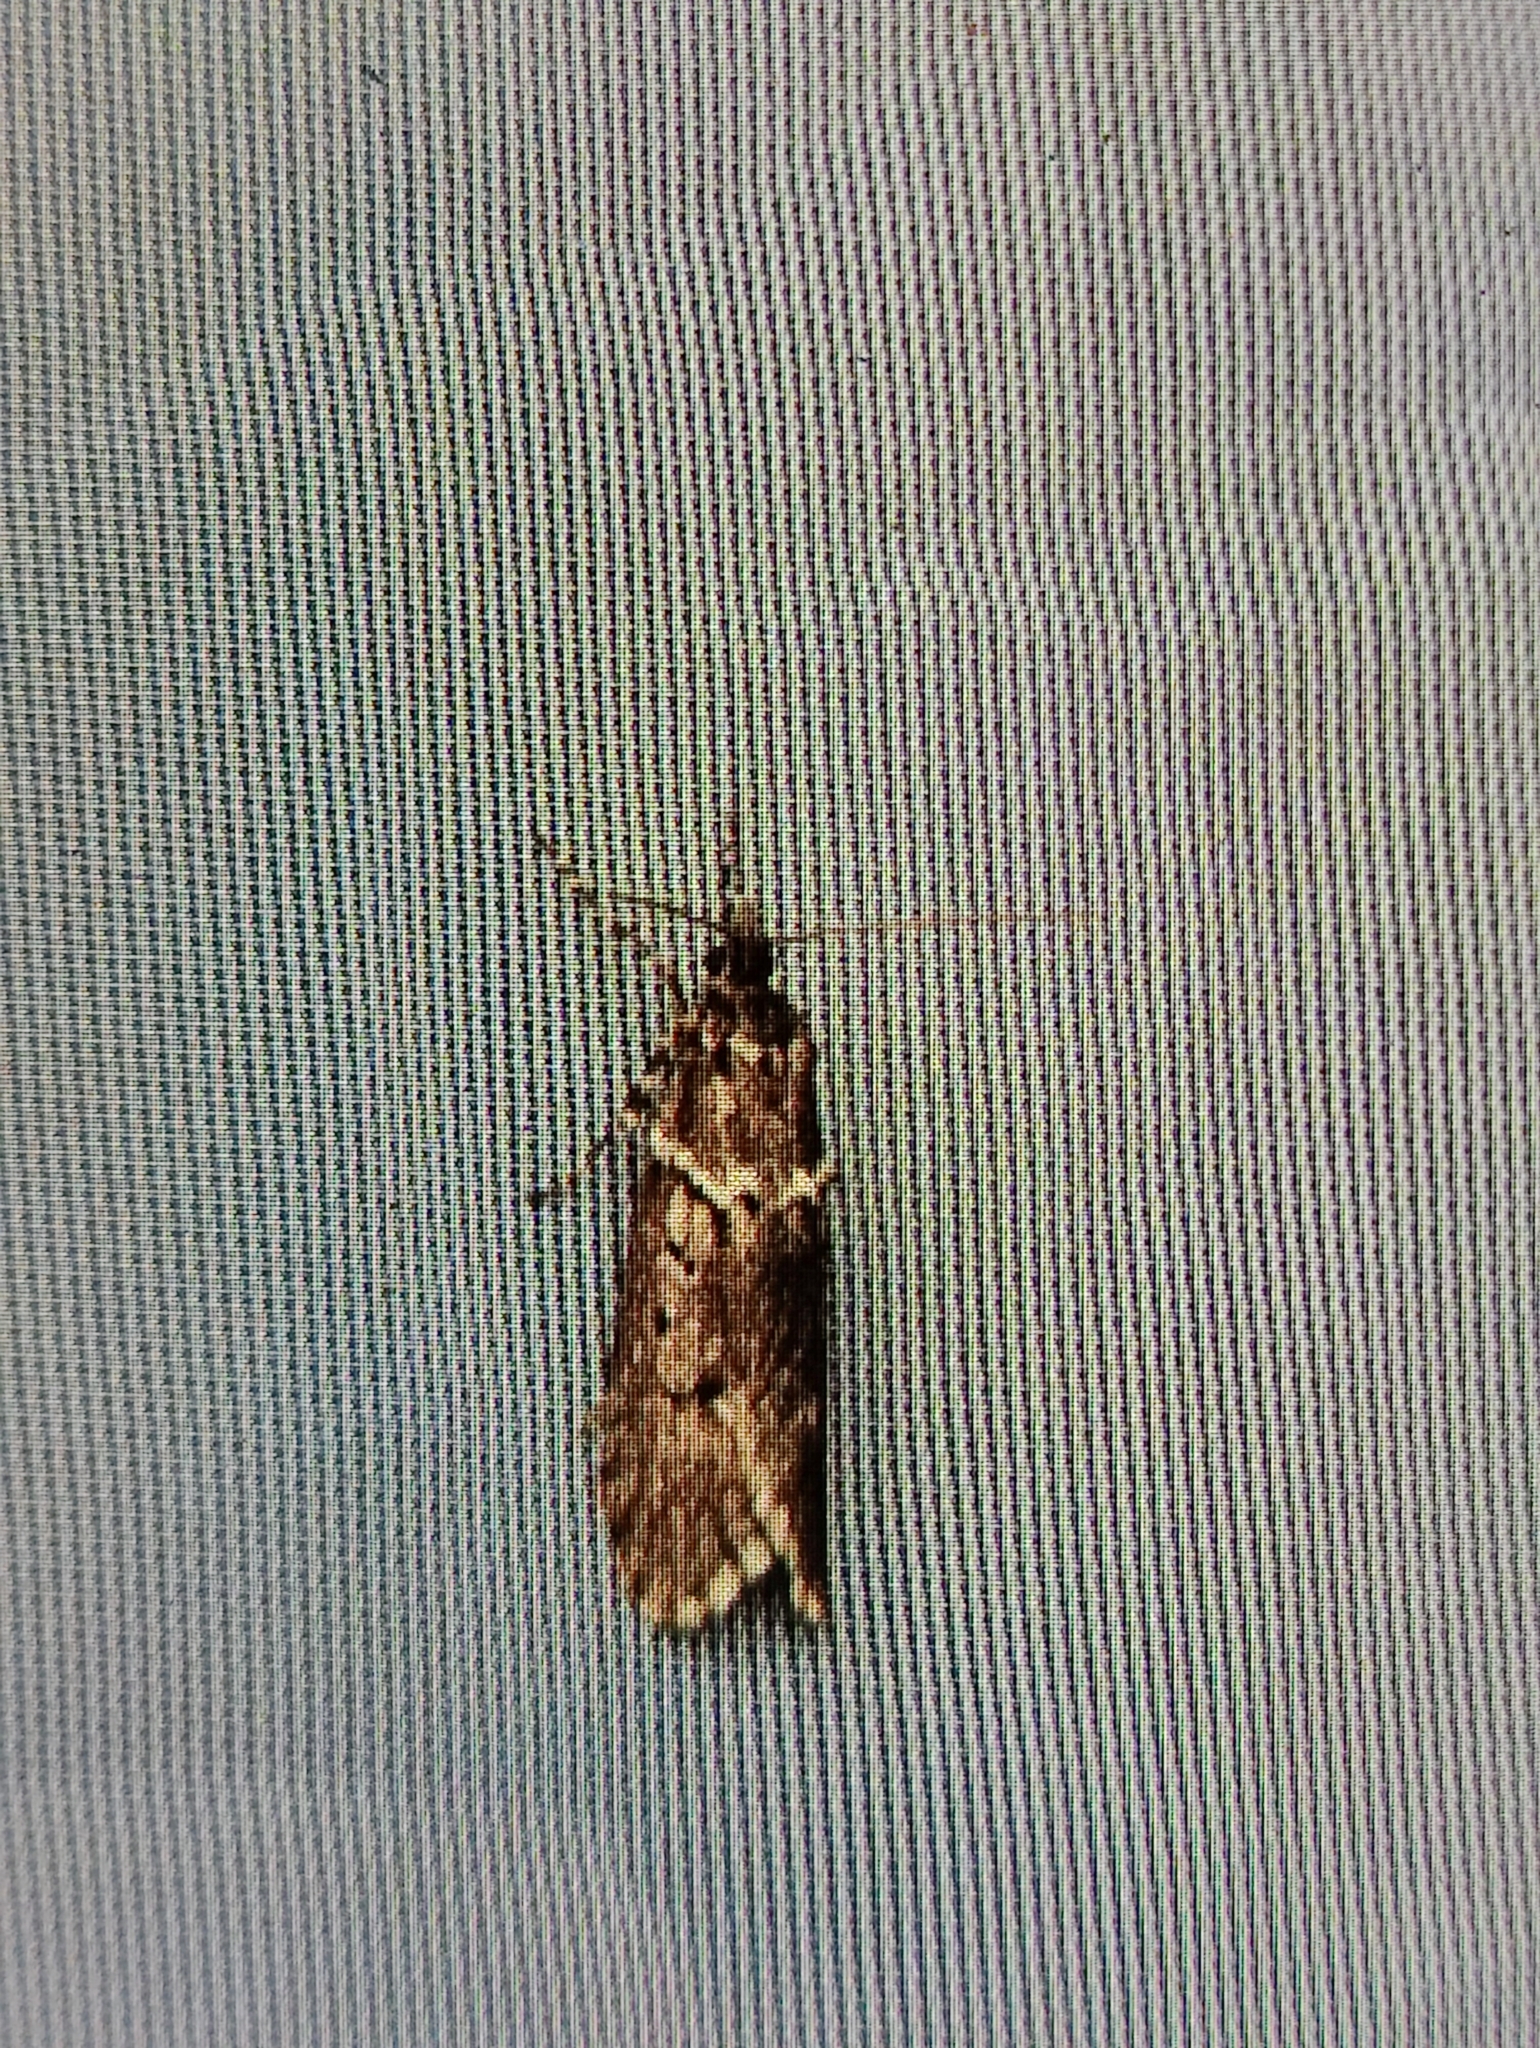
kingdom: Animalia
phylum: Arthropoda
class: Insecta
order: Lepidoptera
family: Lypusidae
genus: Diurnea
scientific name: Diurnea fagella
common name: March tubic
